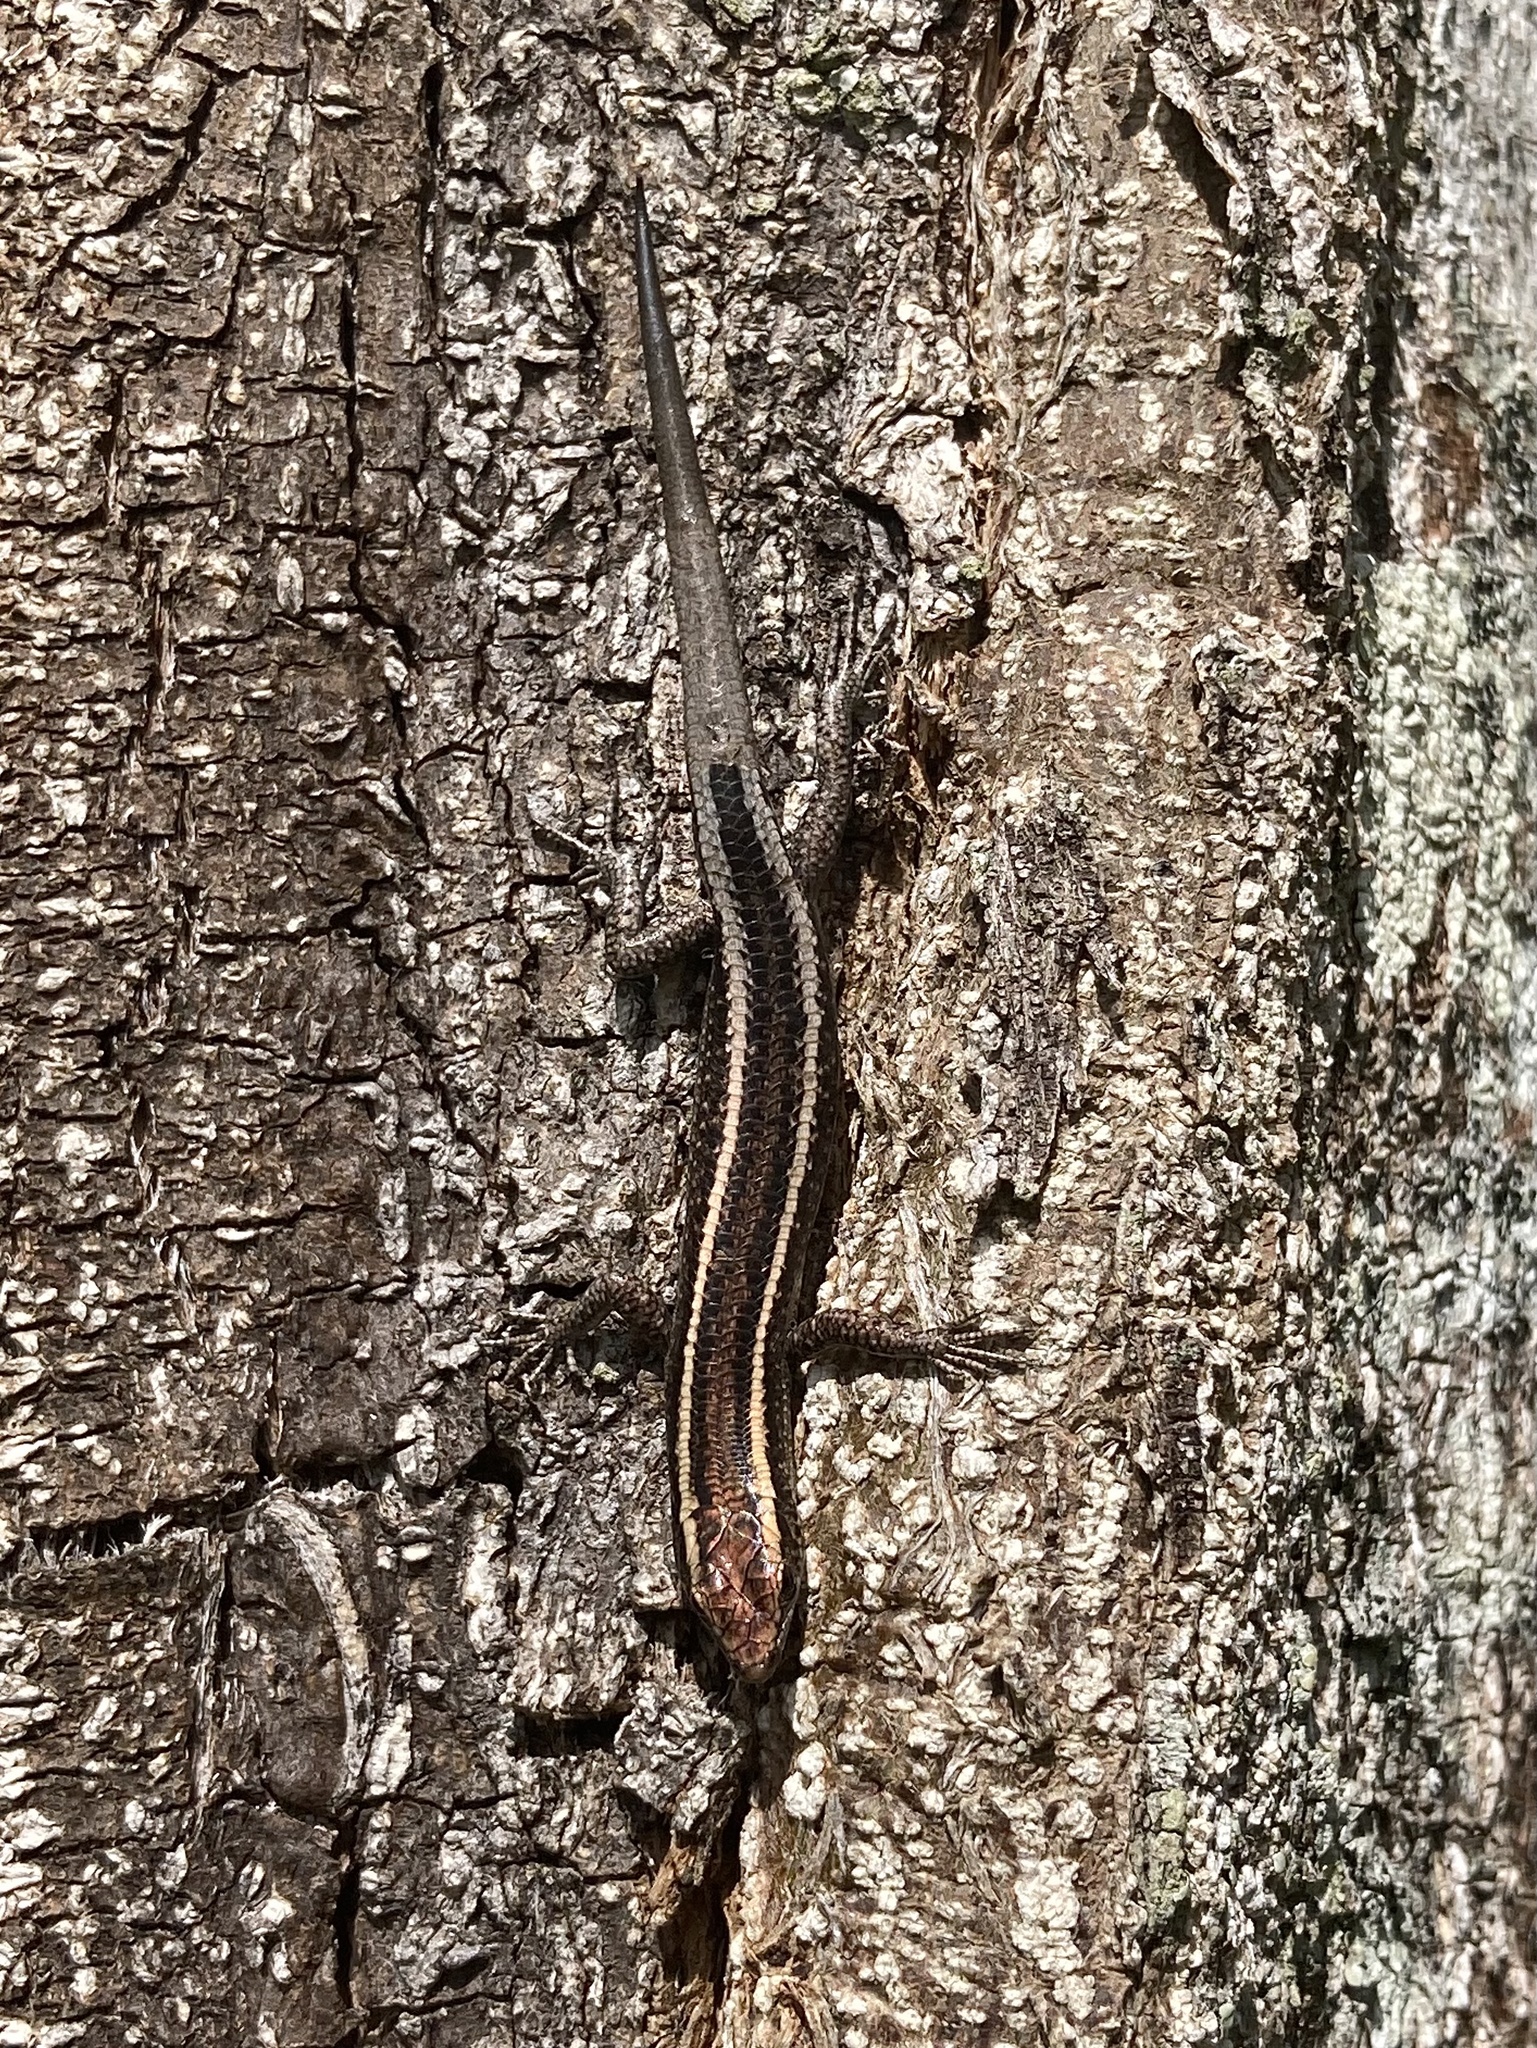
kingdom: Animalia
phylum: Chordata
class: Squamata
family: Scincidae
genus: Cryptoblepharus
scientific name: Cryptoblepharus pulcher
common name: Elegant snake-eyed skink
